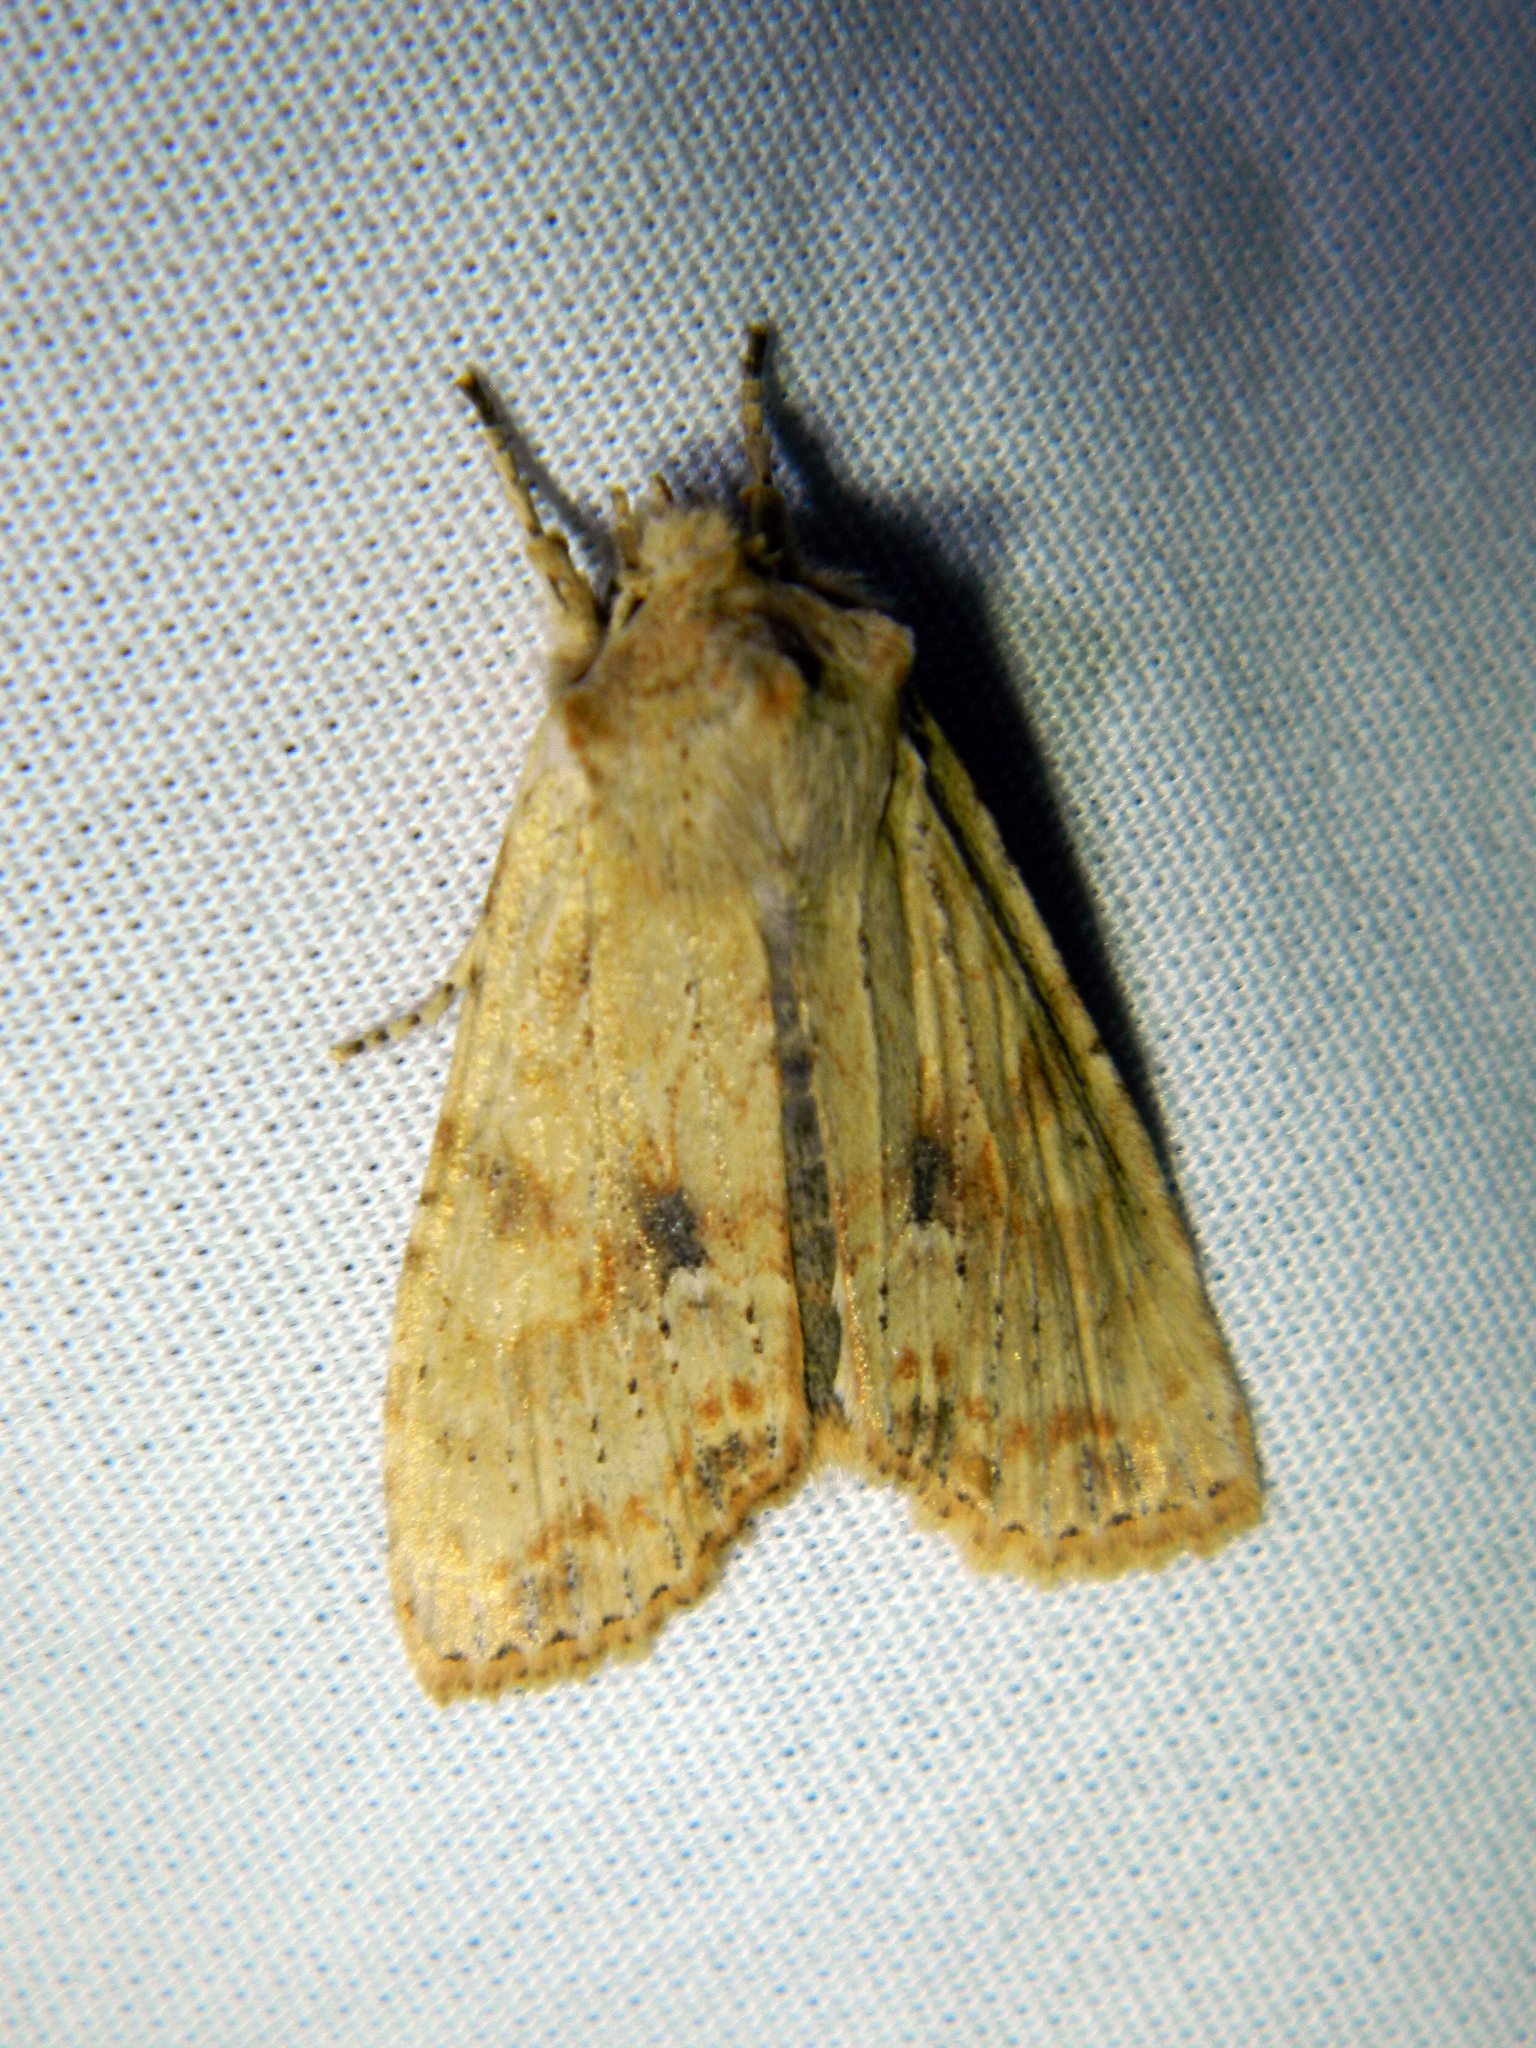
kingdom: Animalia
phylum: Arthropoda
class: Insecta
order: Lepidoptera
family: Noctuidae
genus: Lithophane
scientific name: Lithophane innominata
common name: Nameless pinion moth
